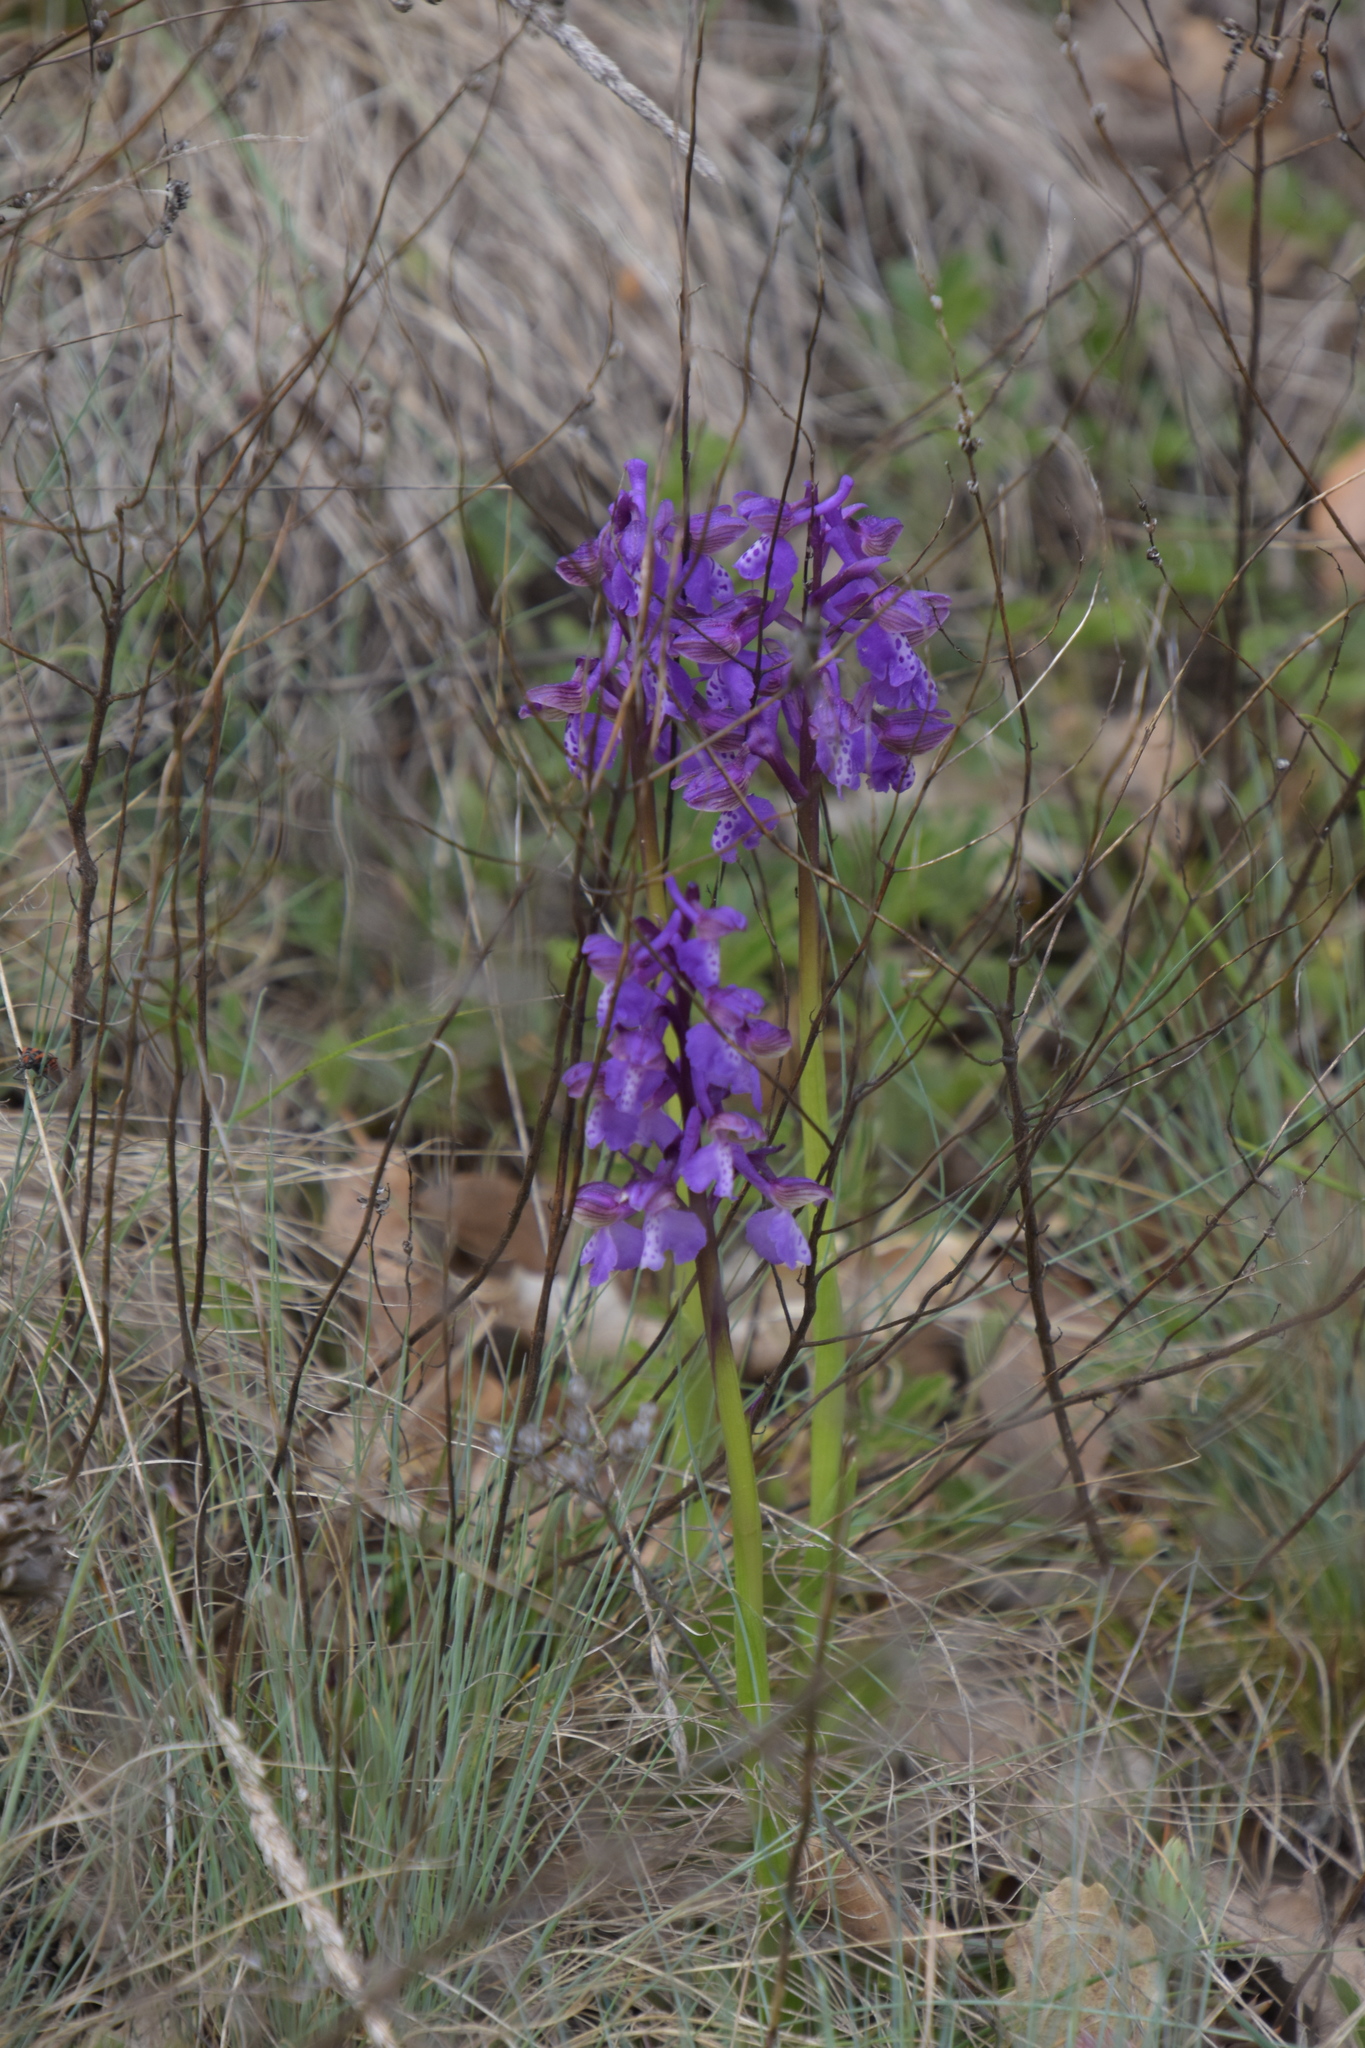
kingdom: Plantae
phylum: Tracheophyta
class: Liliopsida
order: Asparagales
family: Orchidaceae
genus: Anacamptis
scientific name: Anacamptis morio
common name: Green-winged orchid
